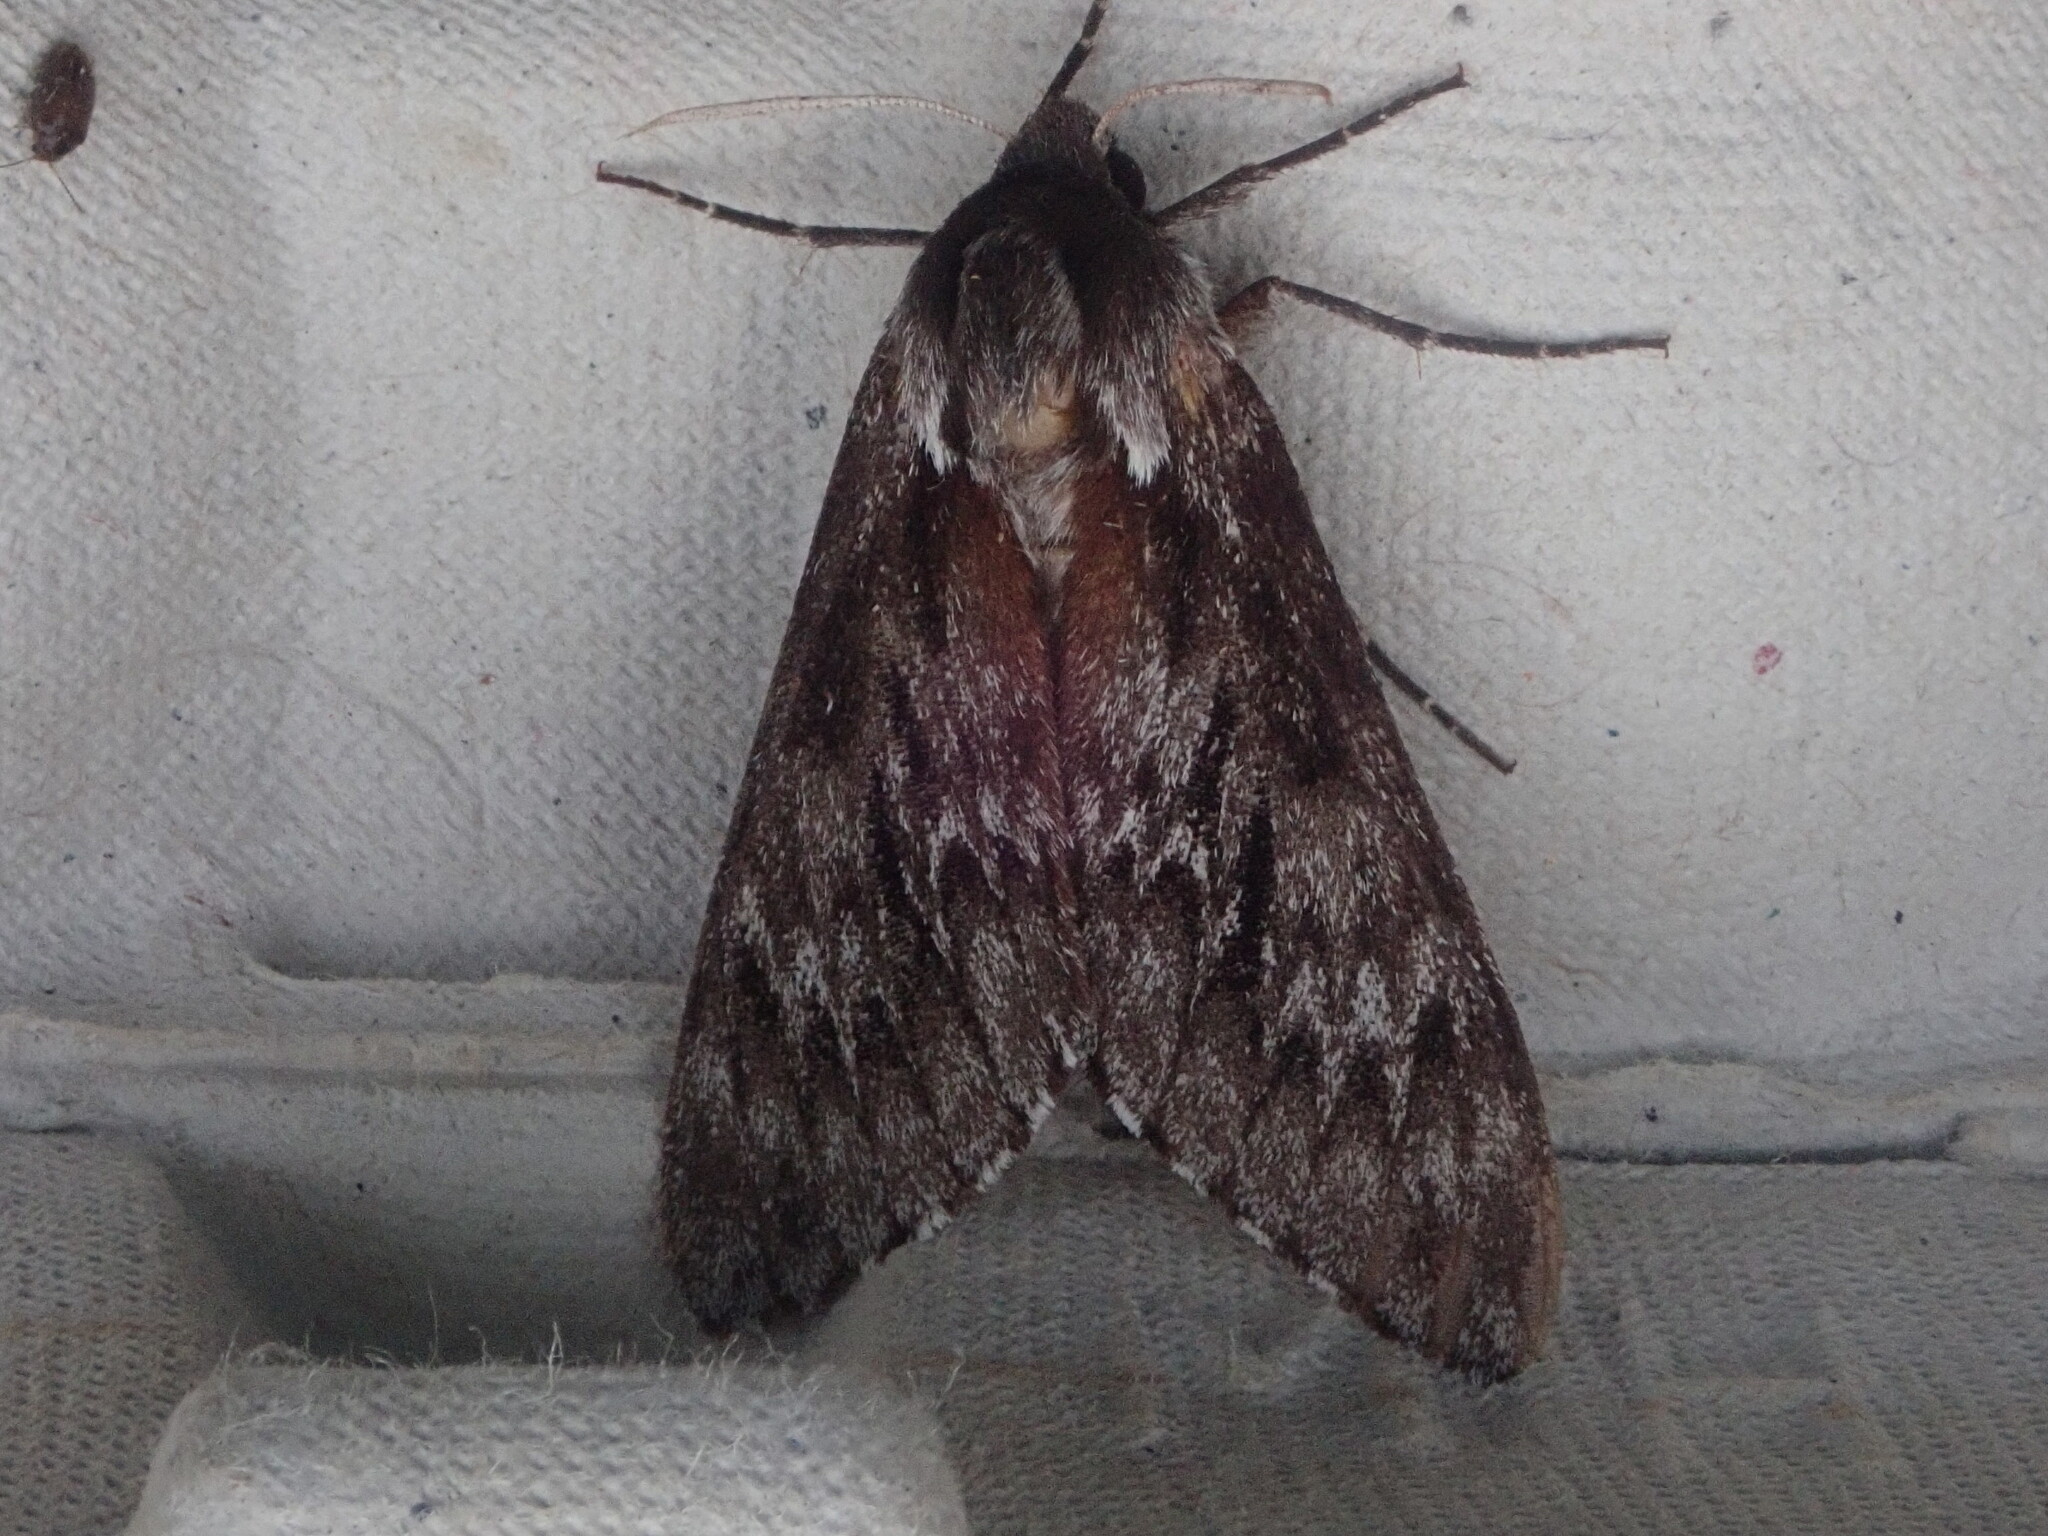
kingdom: Animalia
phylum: Arthropoda
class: Insecta
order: Lepidoptera
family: Sphingidae
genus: Lapara
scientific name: Lapara bombycoides
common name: Northern pine sphinx
